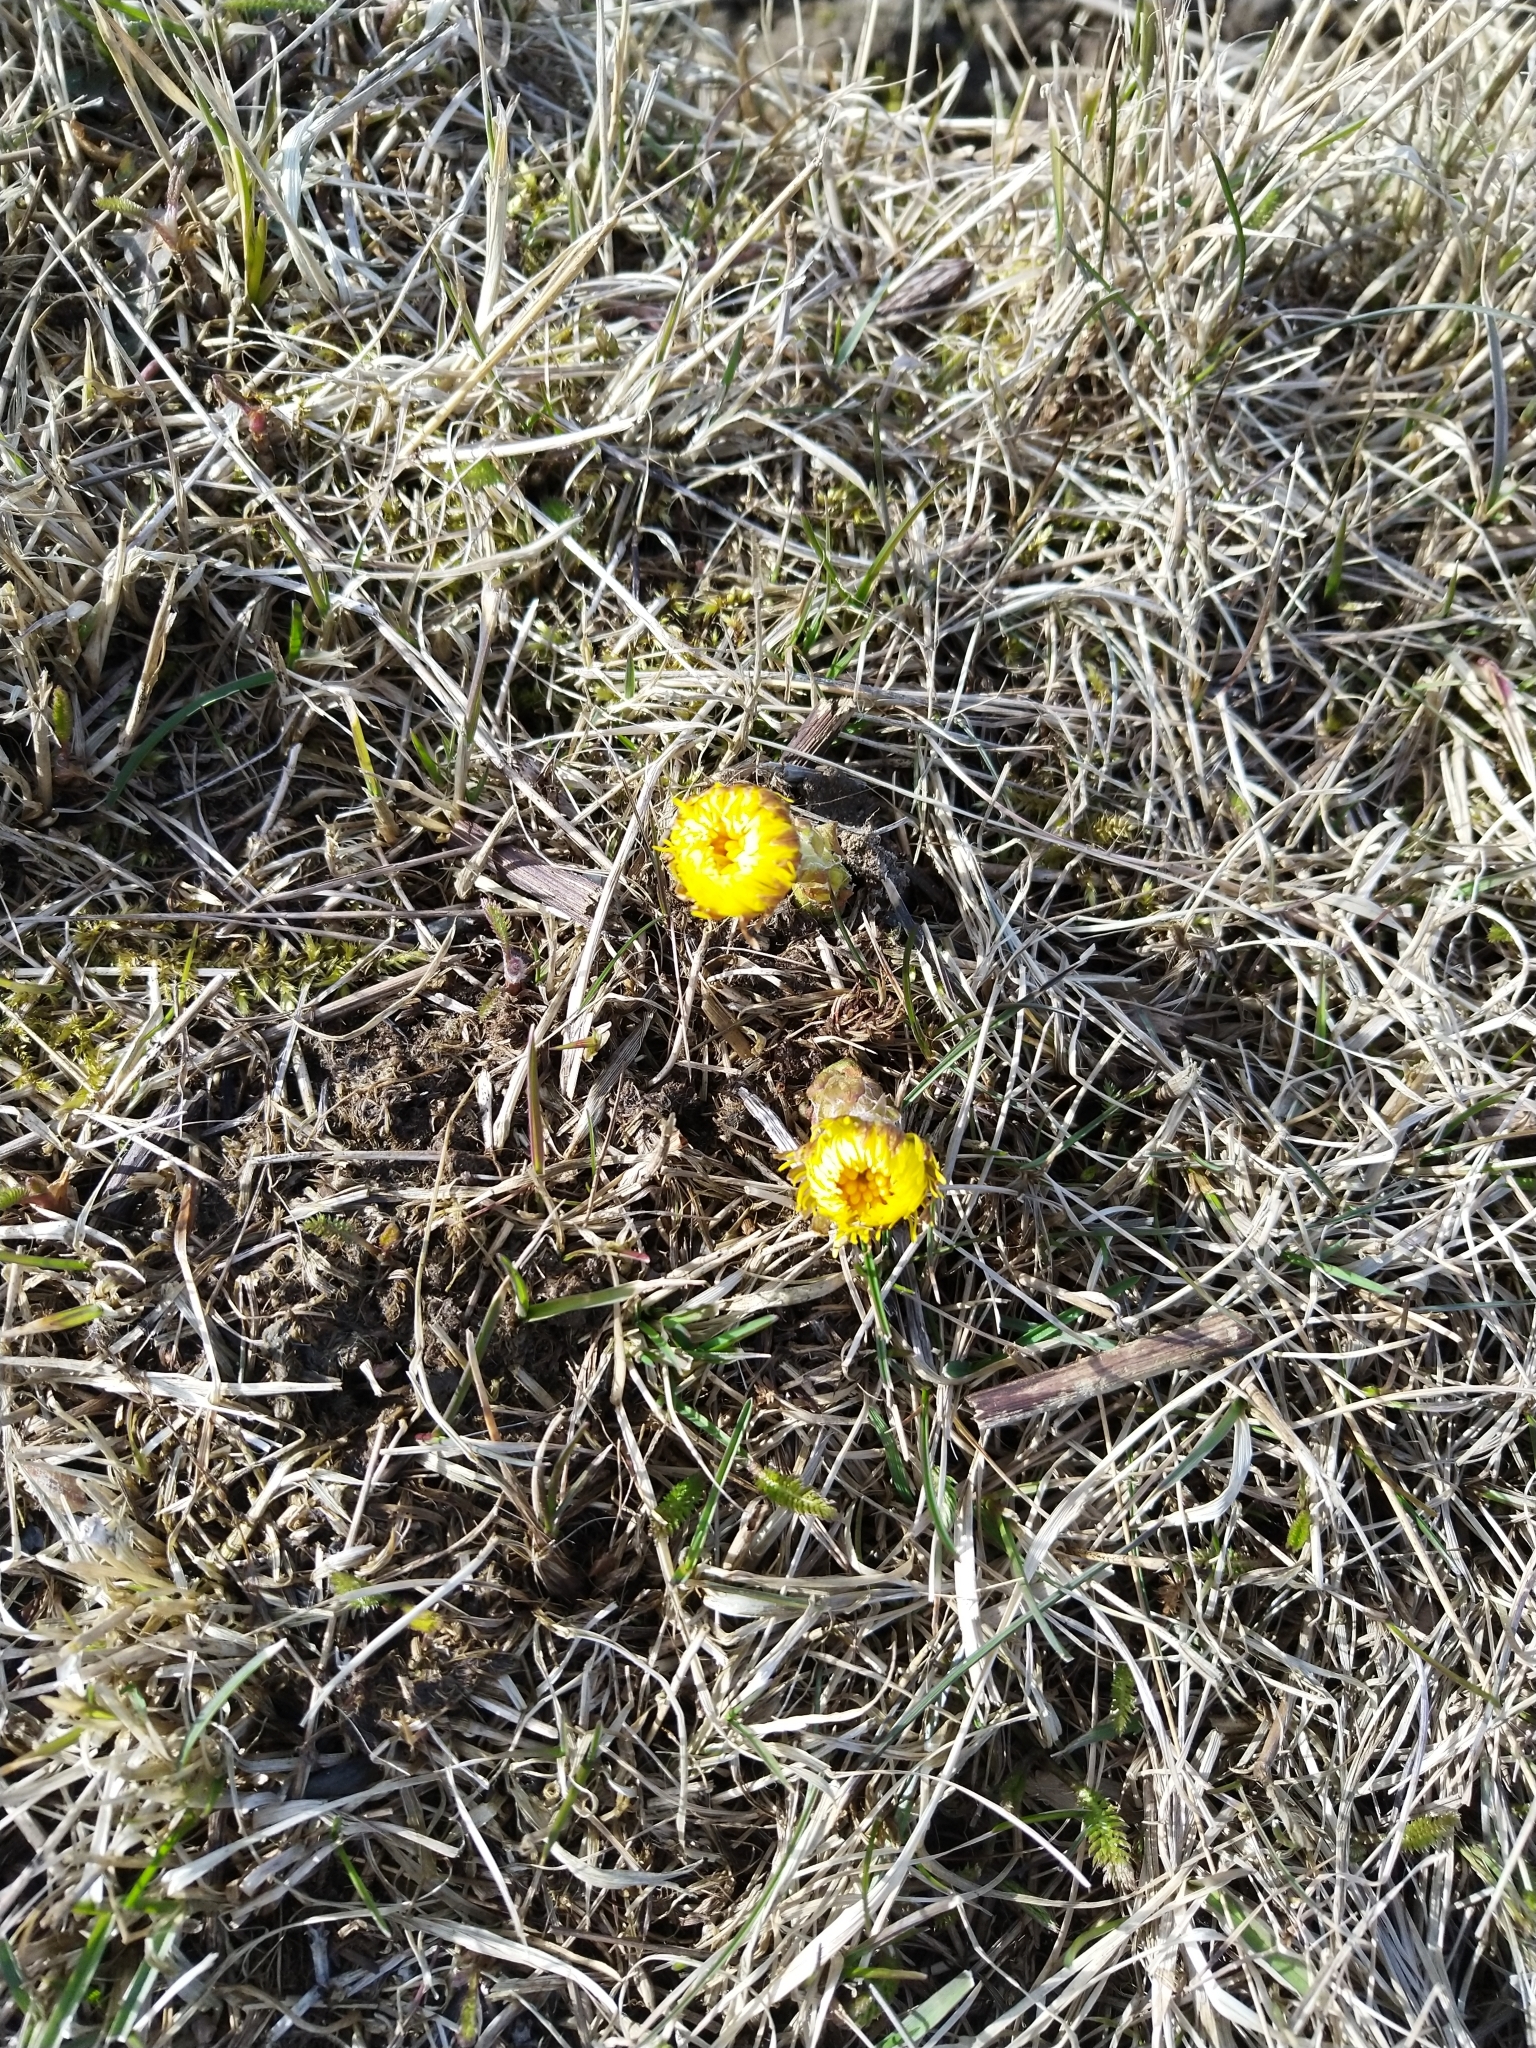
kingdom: Plantae
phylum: Tracheophyta
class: Magnoliopsida
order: Asterales
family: Asteraceae
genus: Tussilago
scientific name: Tussilago farfara
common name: Coltsfoot
